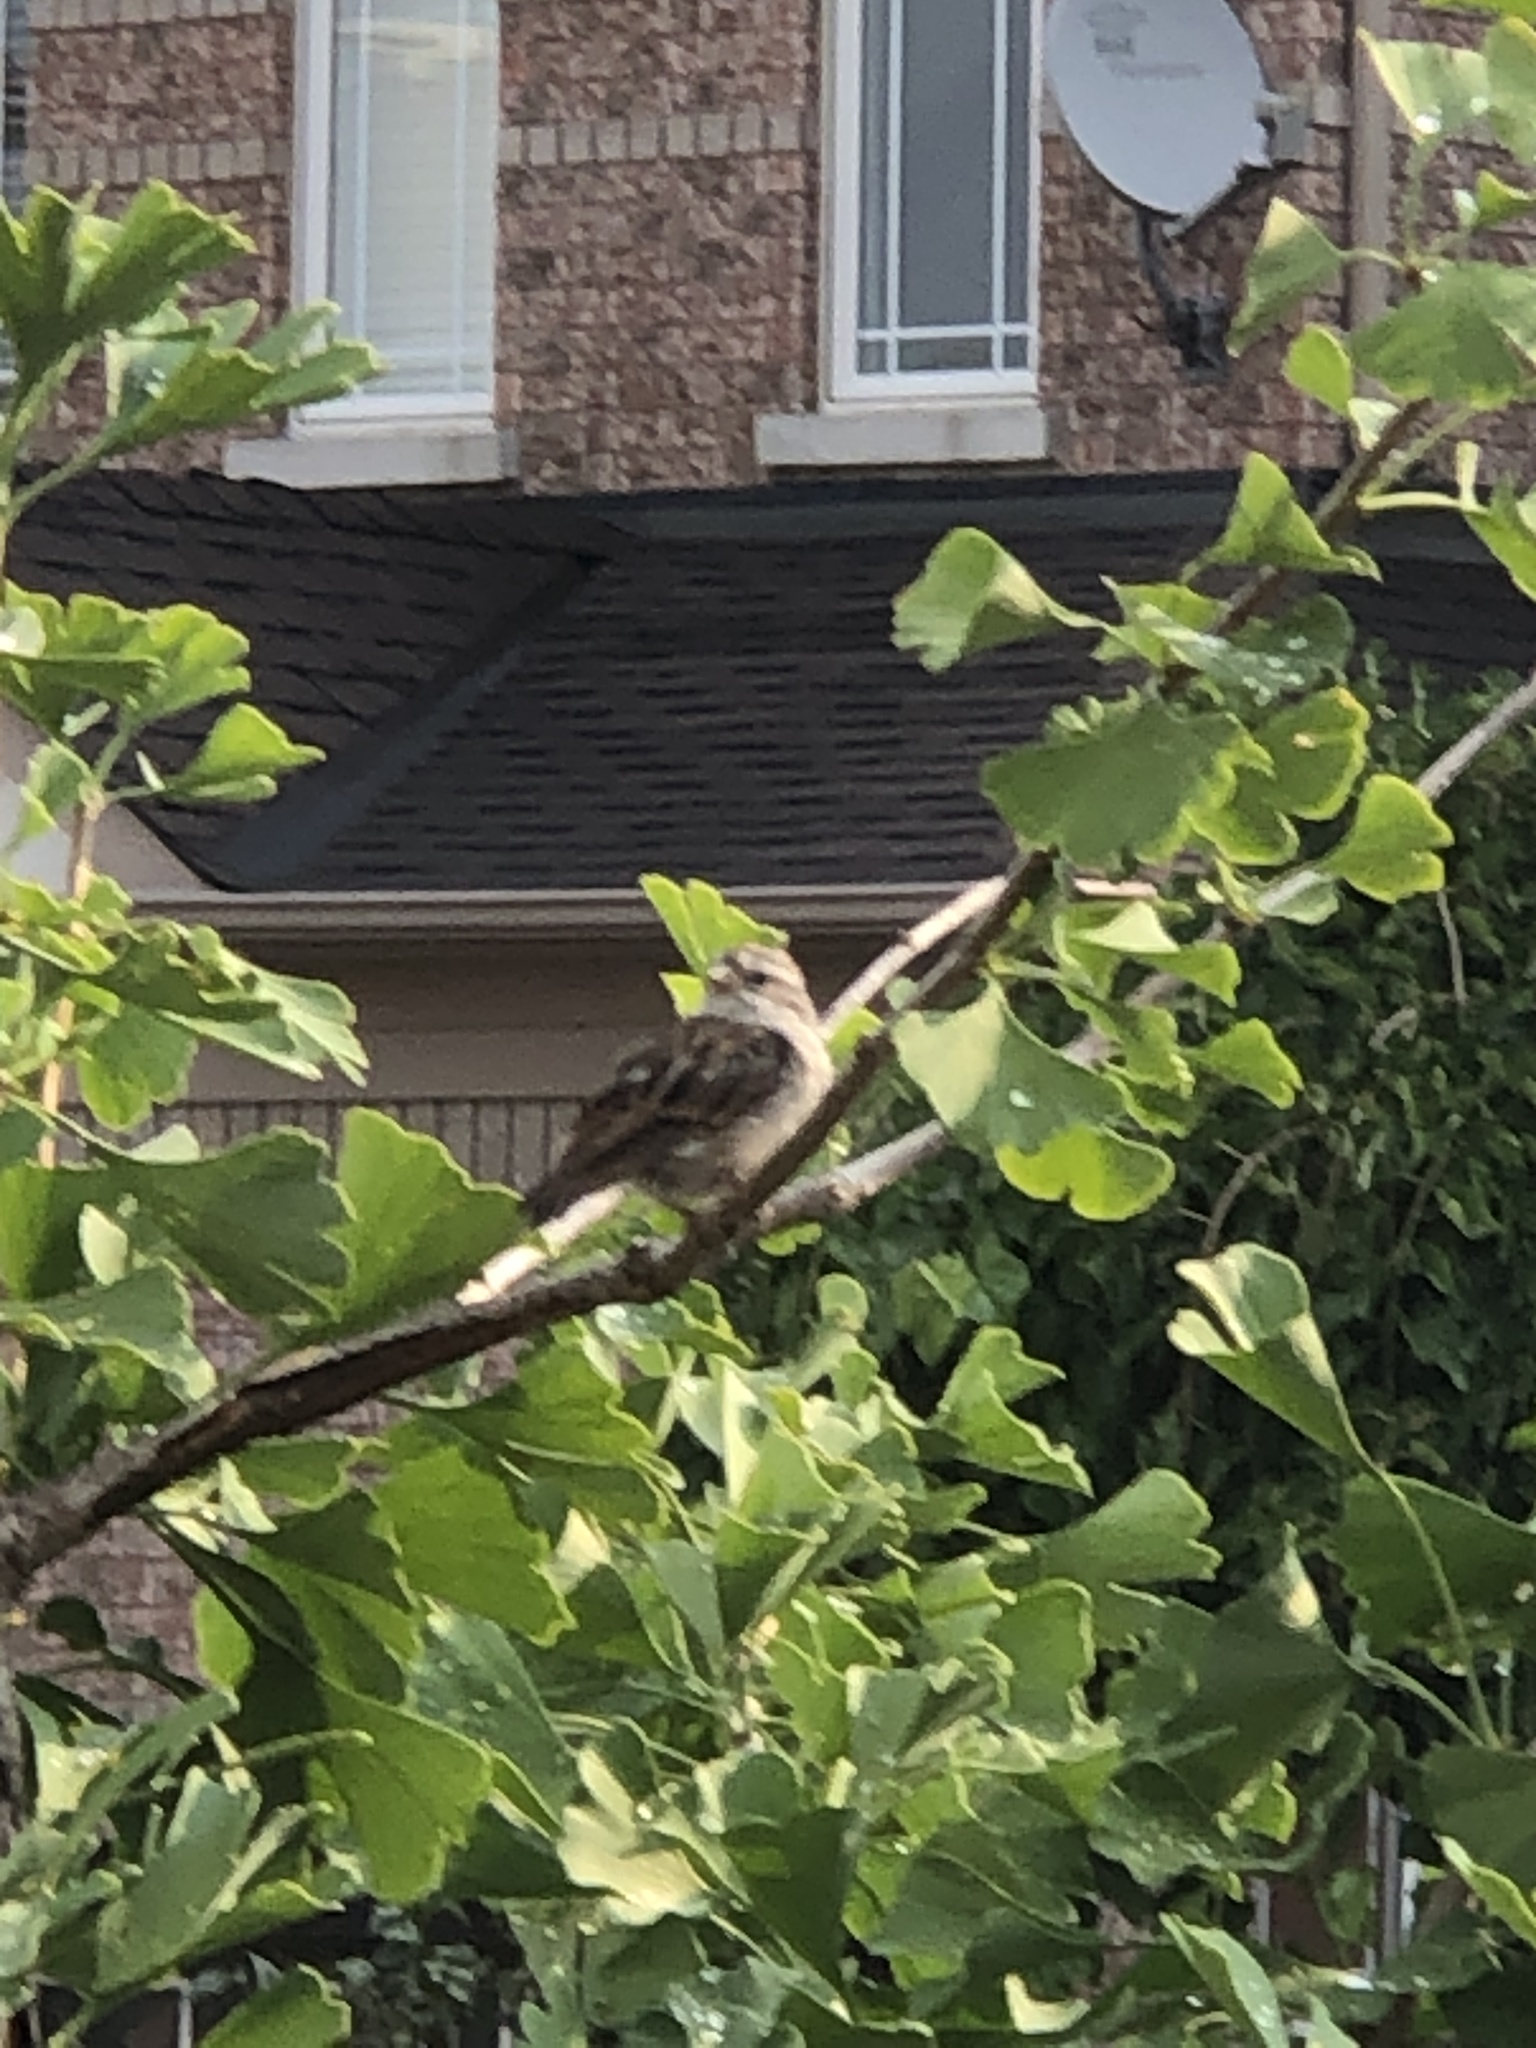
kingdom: Animalia
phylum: Chordata
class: Aves
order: Passeriformes
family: Passeridae
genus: Passer
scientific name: Passer domesticus
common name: House sparrow
